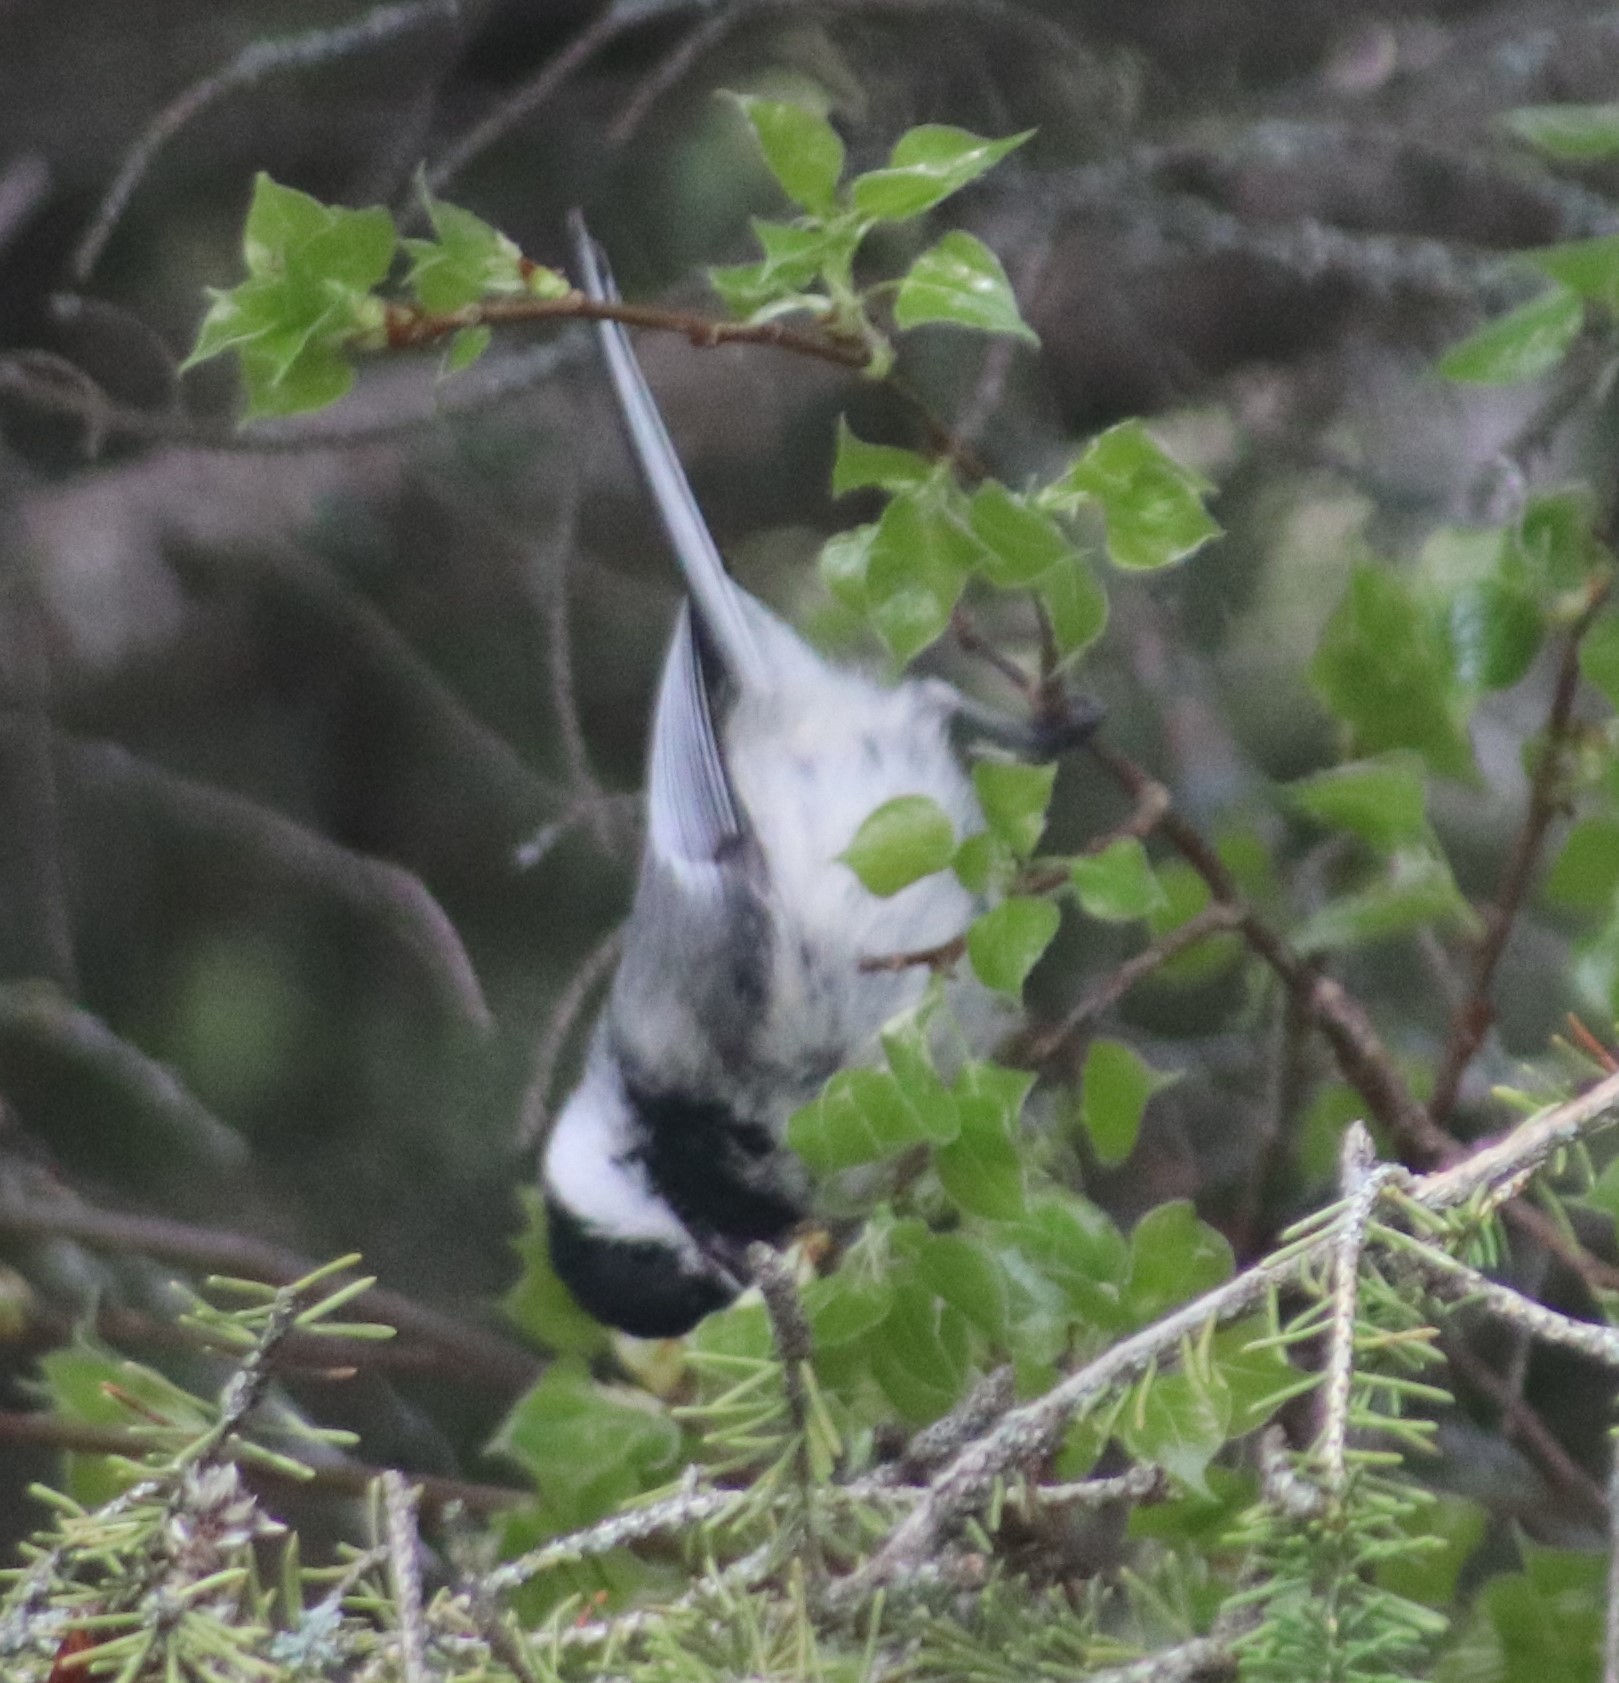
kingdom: Animalia
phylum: Chordata
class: Aves
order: Passeriformes
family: Paridae
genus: Poecile
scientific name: Poecile atricapillus
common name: Black-capped chickadee
